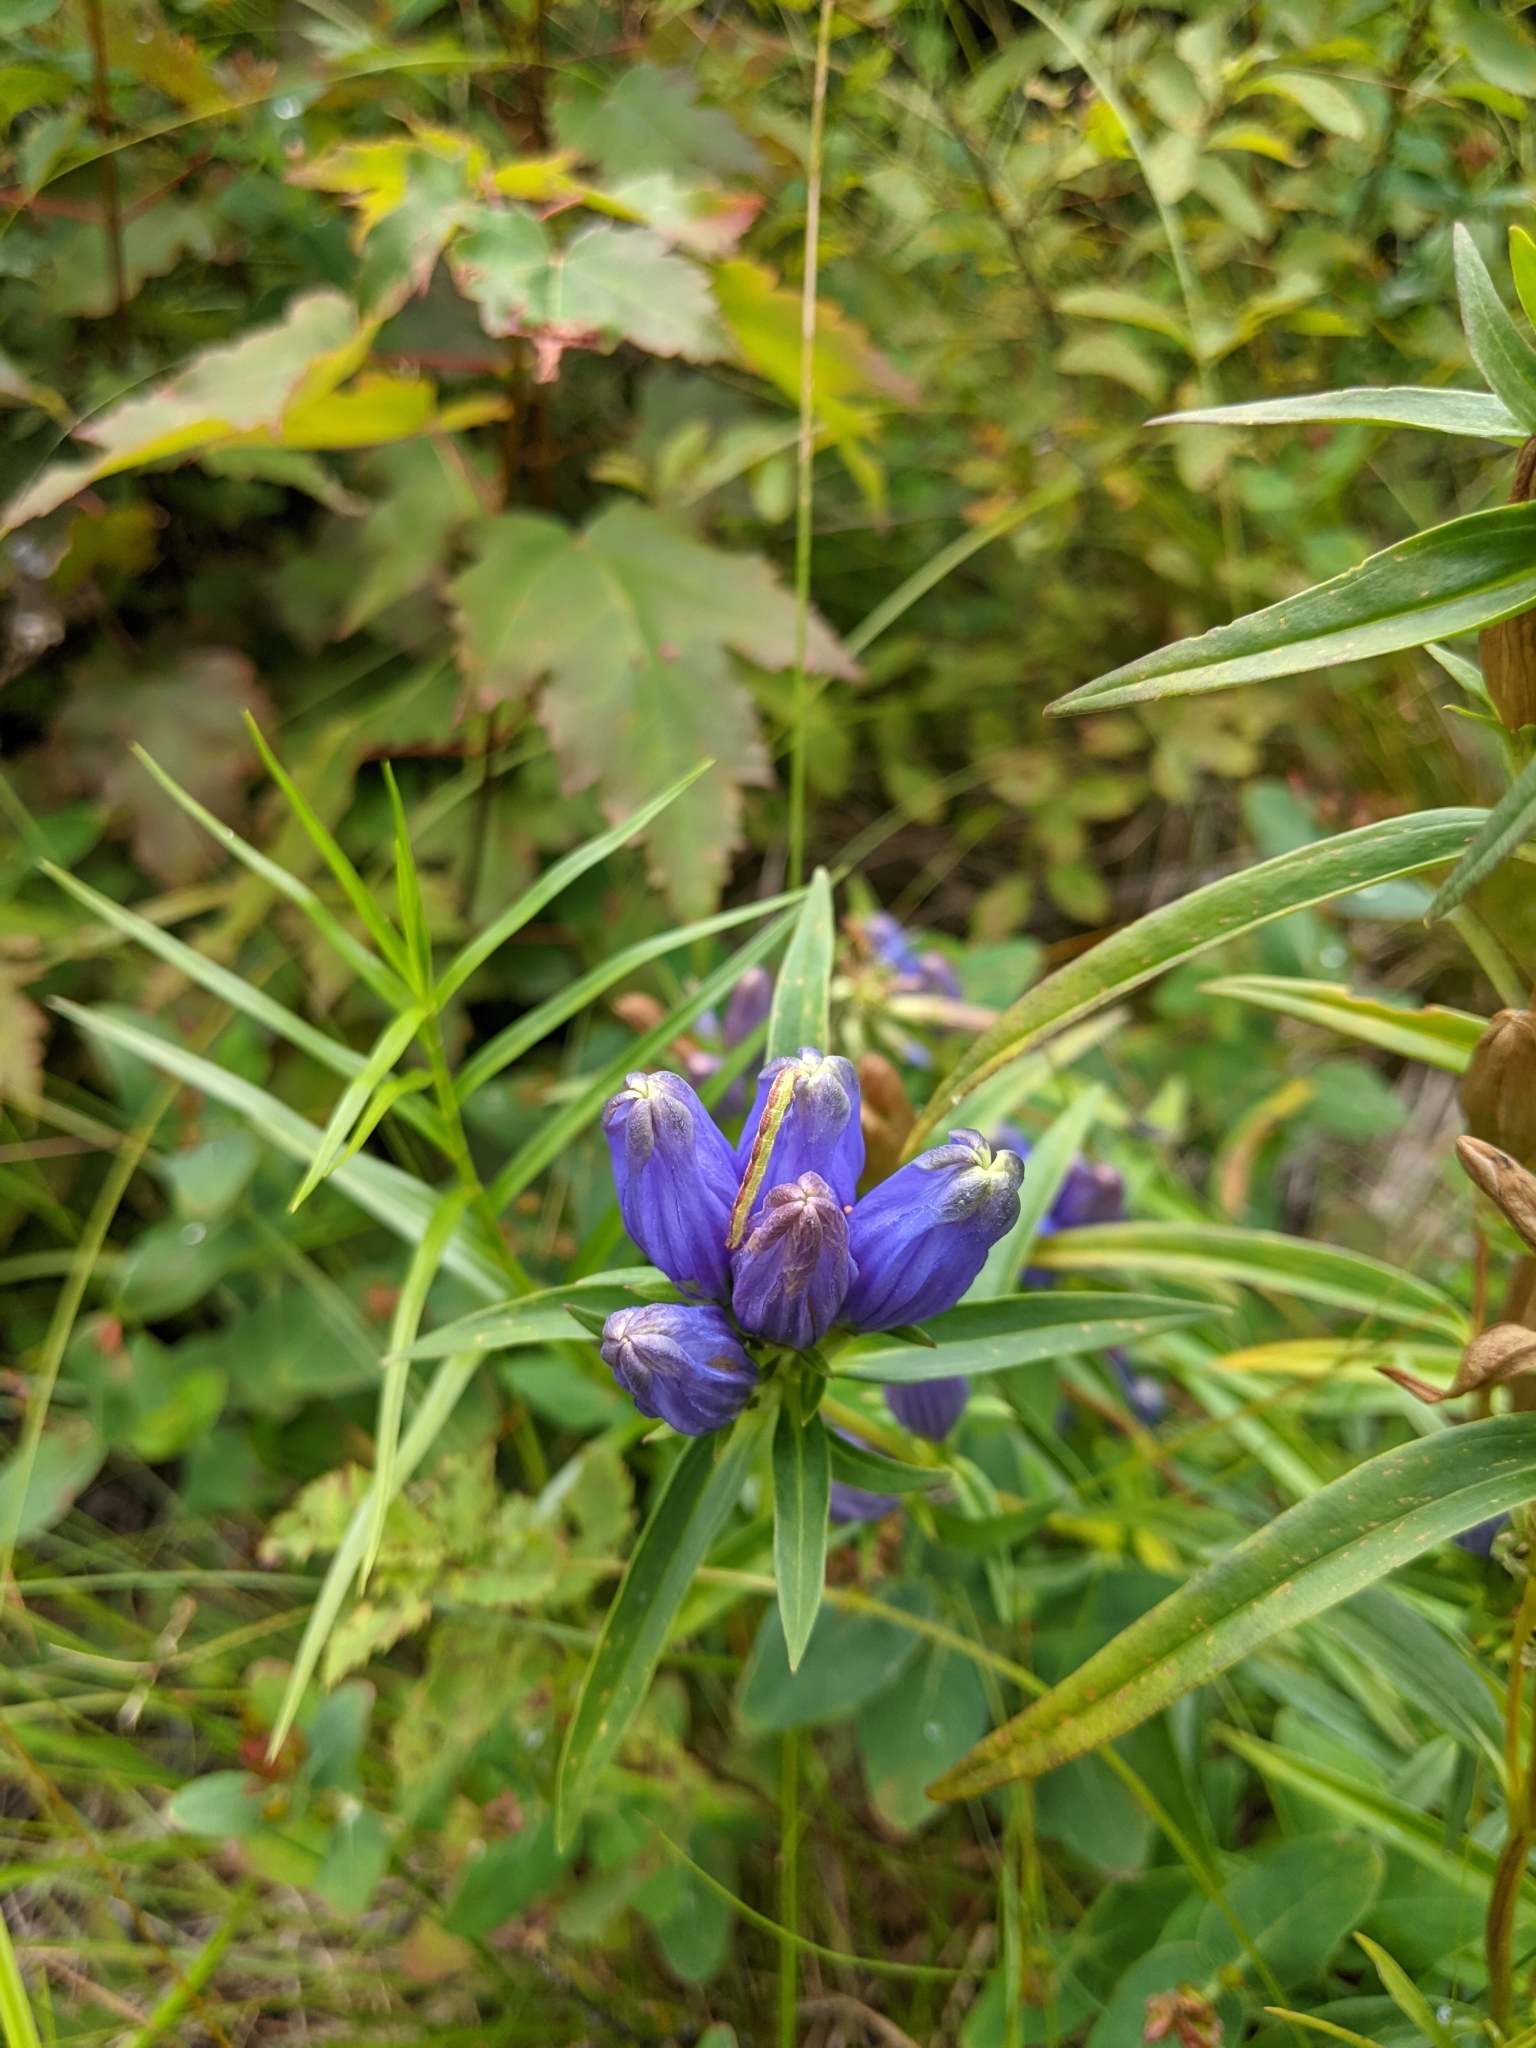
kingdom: Plantae
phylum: Tracheophyta
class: Magnoliopsida
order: Gentianales
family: Gentianaceae
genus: Gentiana
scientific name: Gentiana linearis
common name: Bastard gentian
